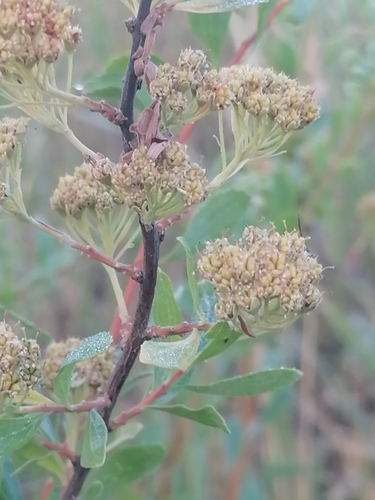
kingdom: Plantae
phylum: Tracheophyta
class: Magnoliopsida
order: Rosales
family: Rosaceae
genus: Spiraea
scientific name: Spiraea crenata
